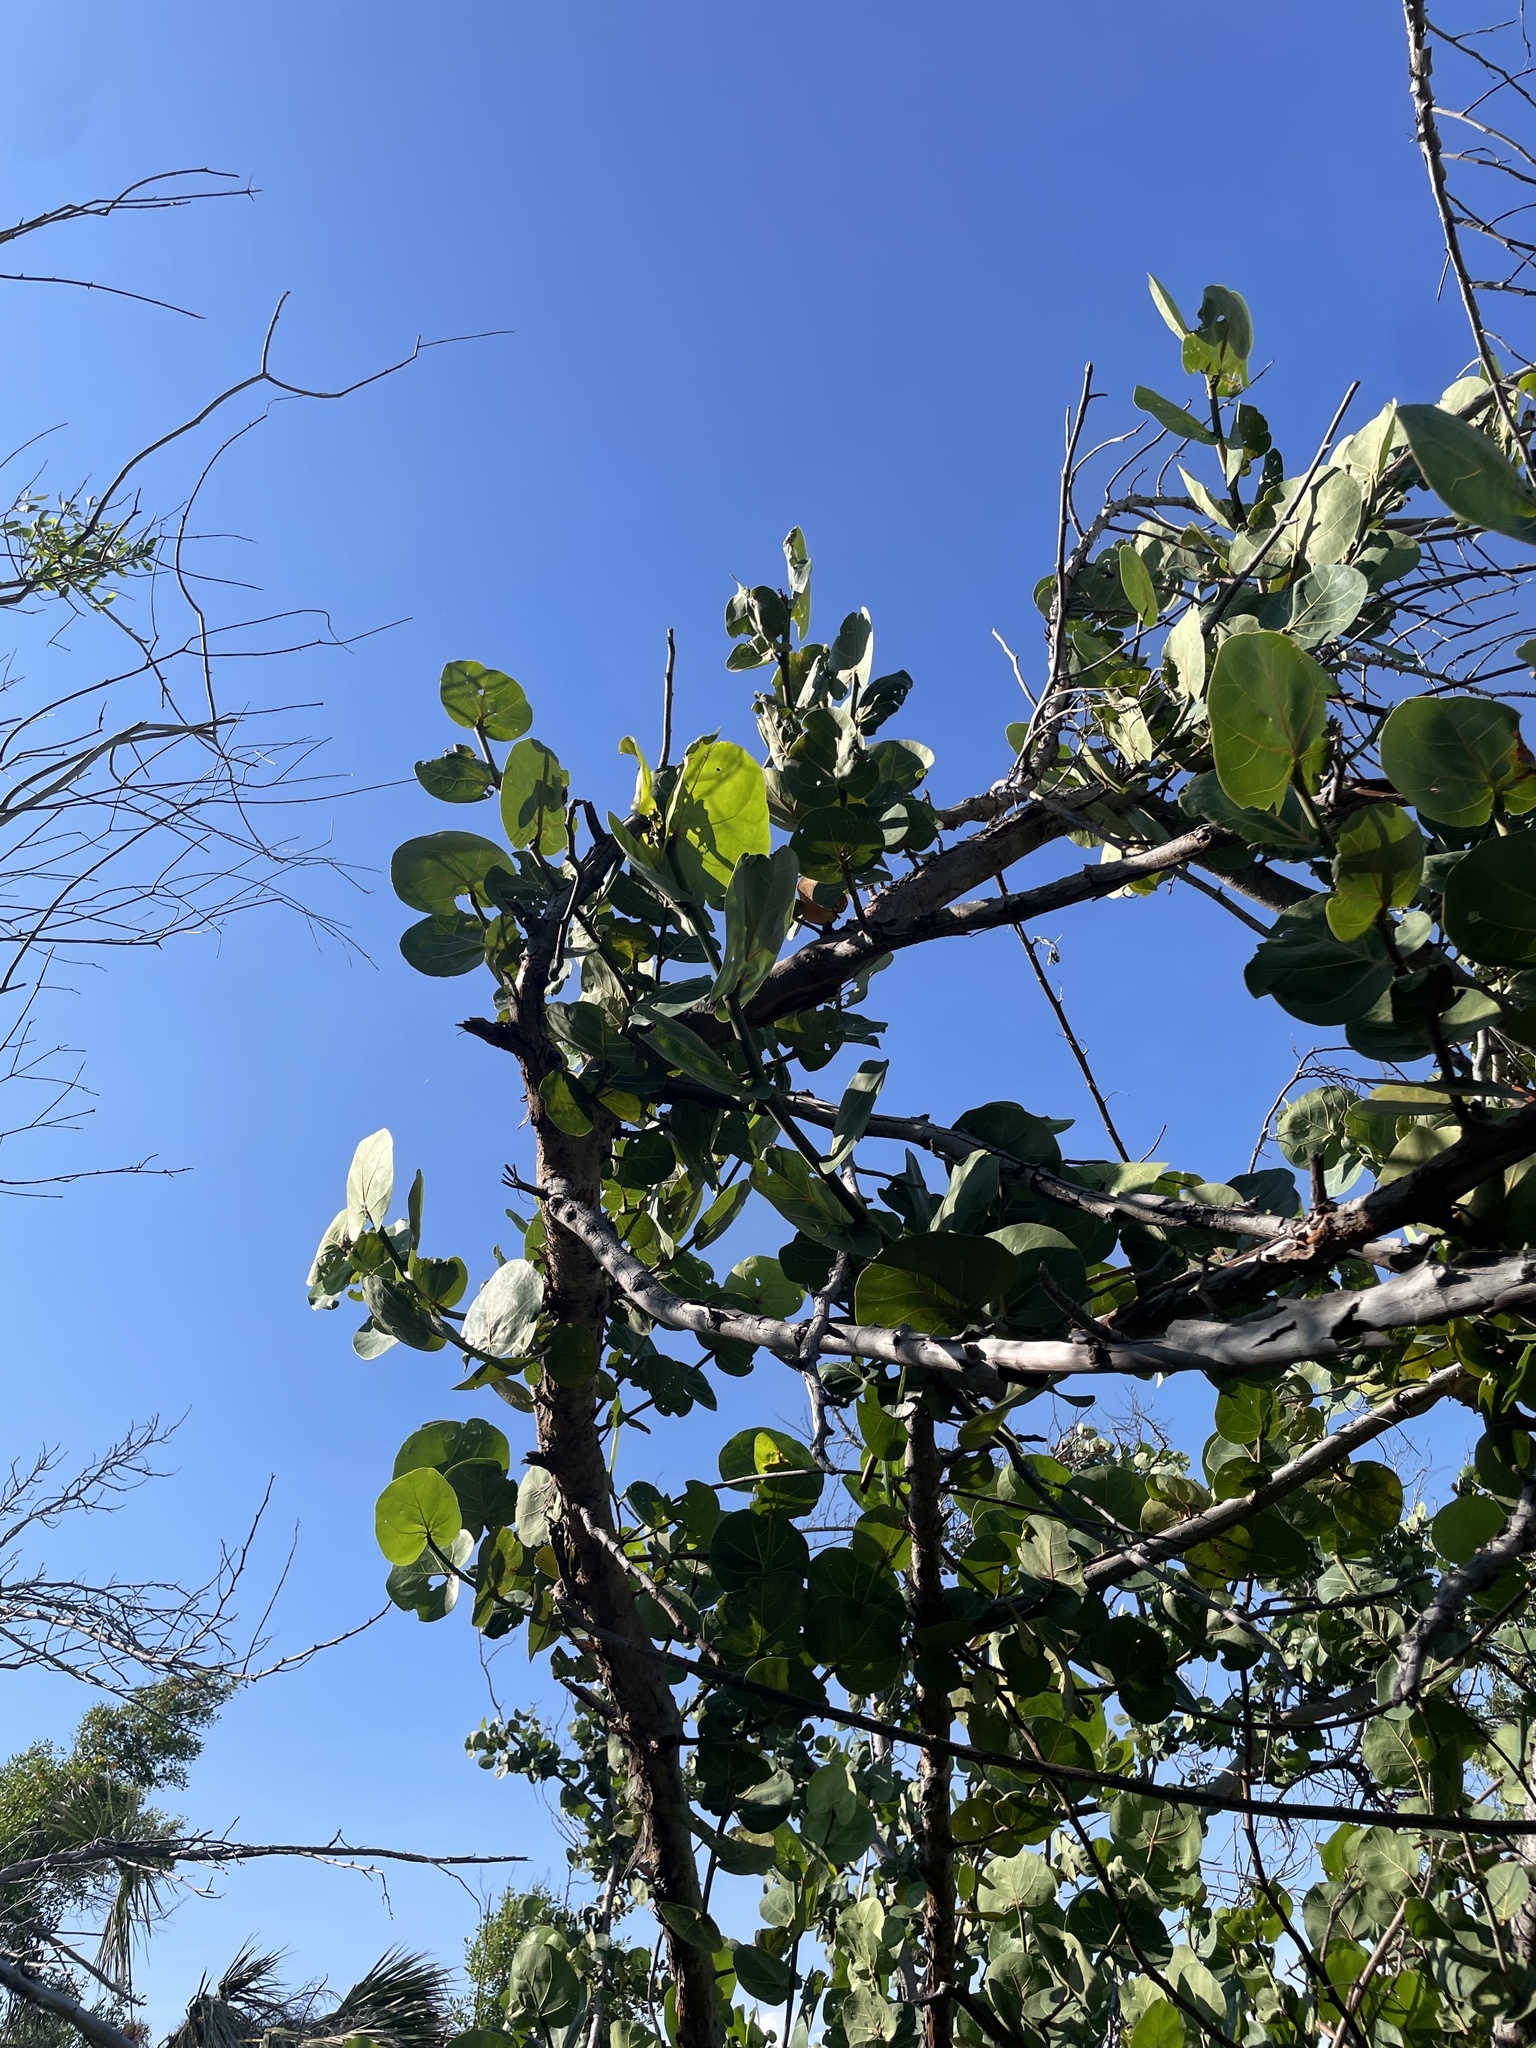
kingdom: Plantae
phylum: Tracheophyta
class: Magnoliopsida
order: Caryophyllales
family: Polygonaceae
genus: Coccoloba
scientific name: Coccoloba uvifera
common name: Seagrape
